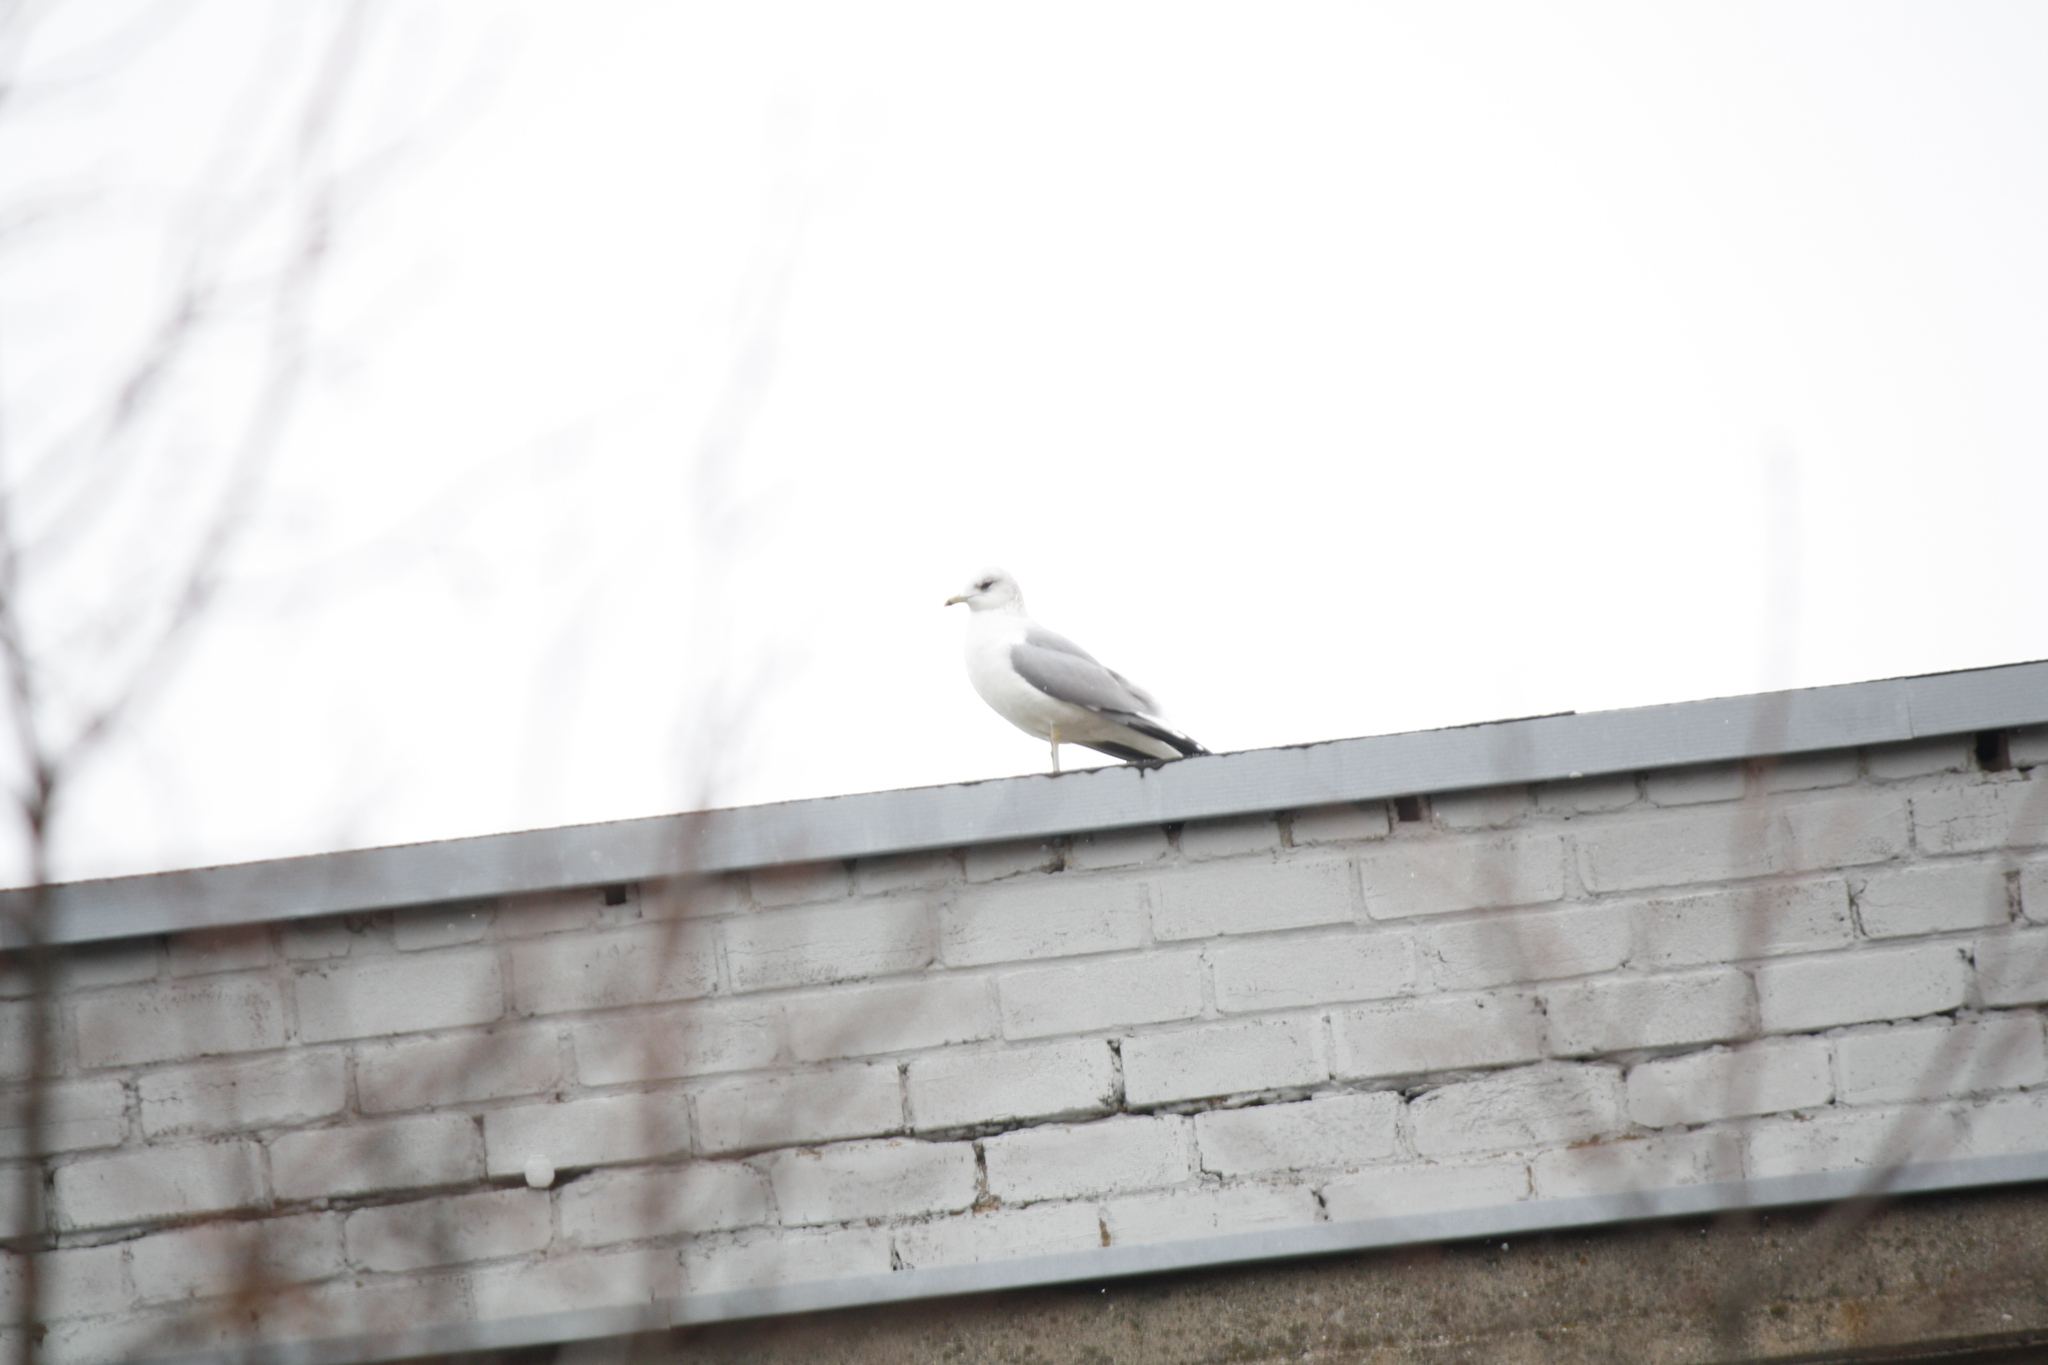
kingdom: Animalia
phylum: Chordata
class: Aves
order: Charadriiformes
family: Laridae
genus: Larus
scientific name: Larus canus
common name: Mew gull
